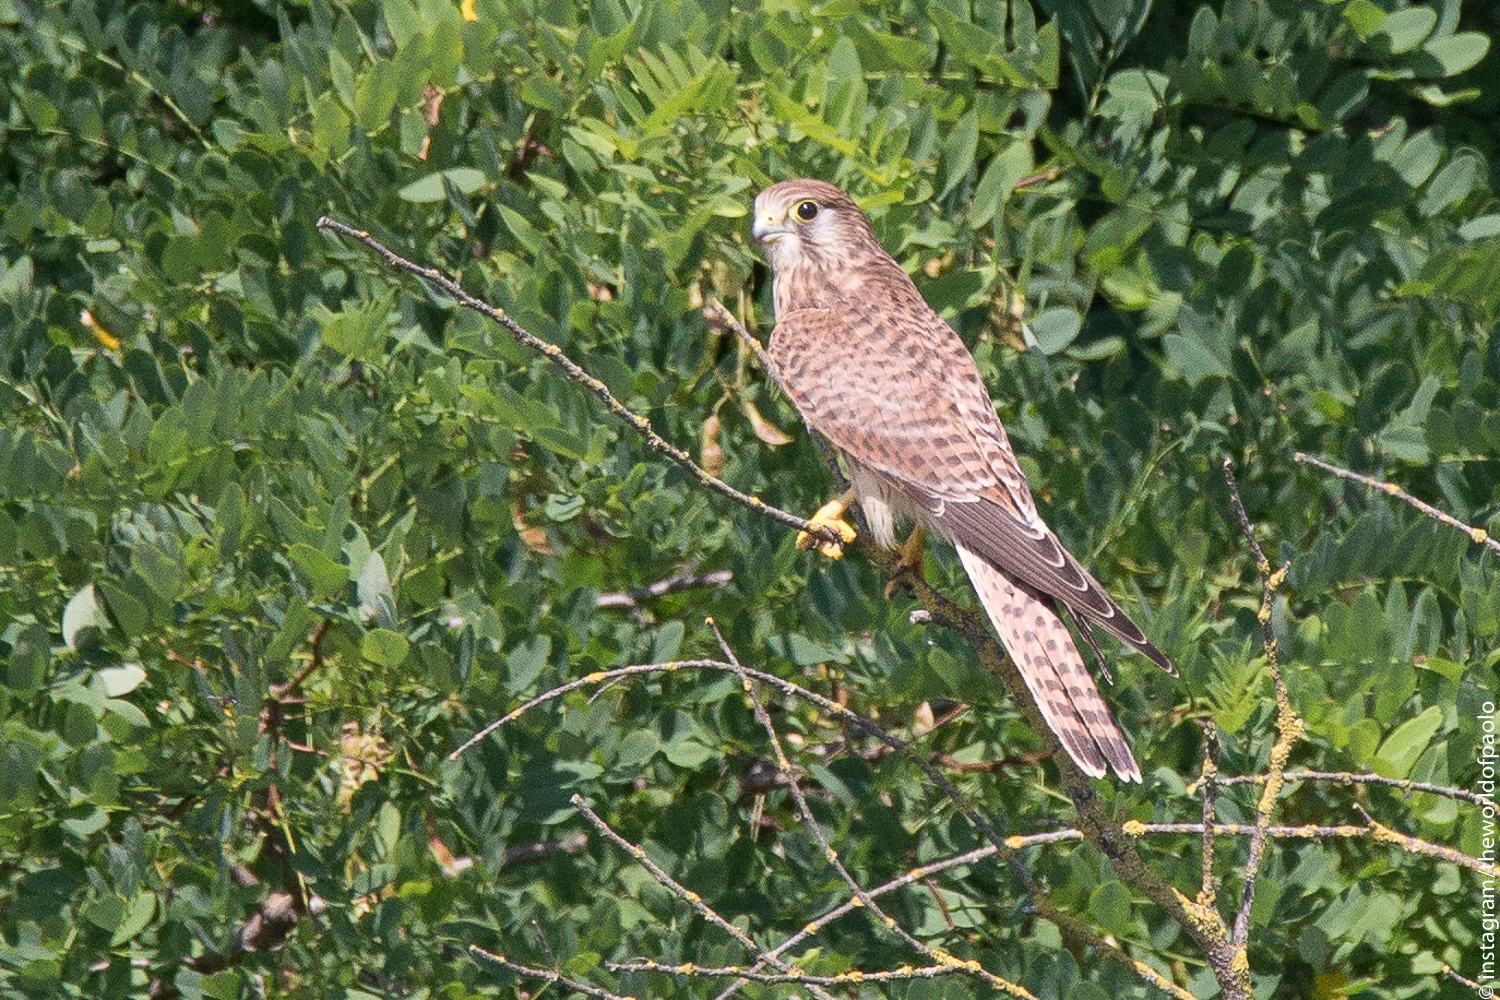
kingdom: Animalia
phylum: Chordata
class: Aves
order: Falconiformes
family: Falconidae
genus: Falco
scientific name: Falco tinnunculus
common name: Common kestrel
